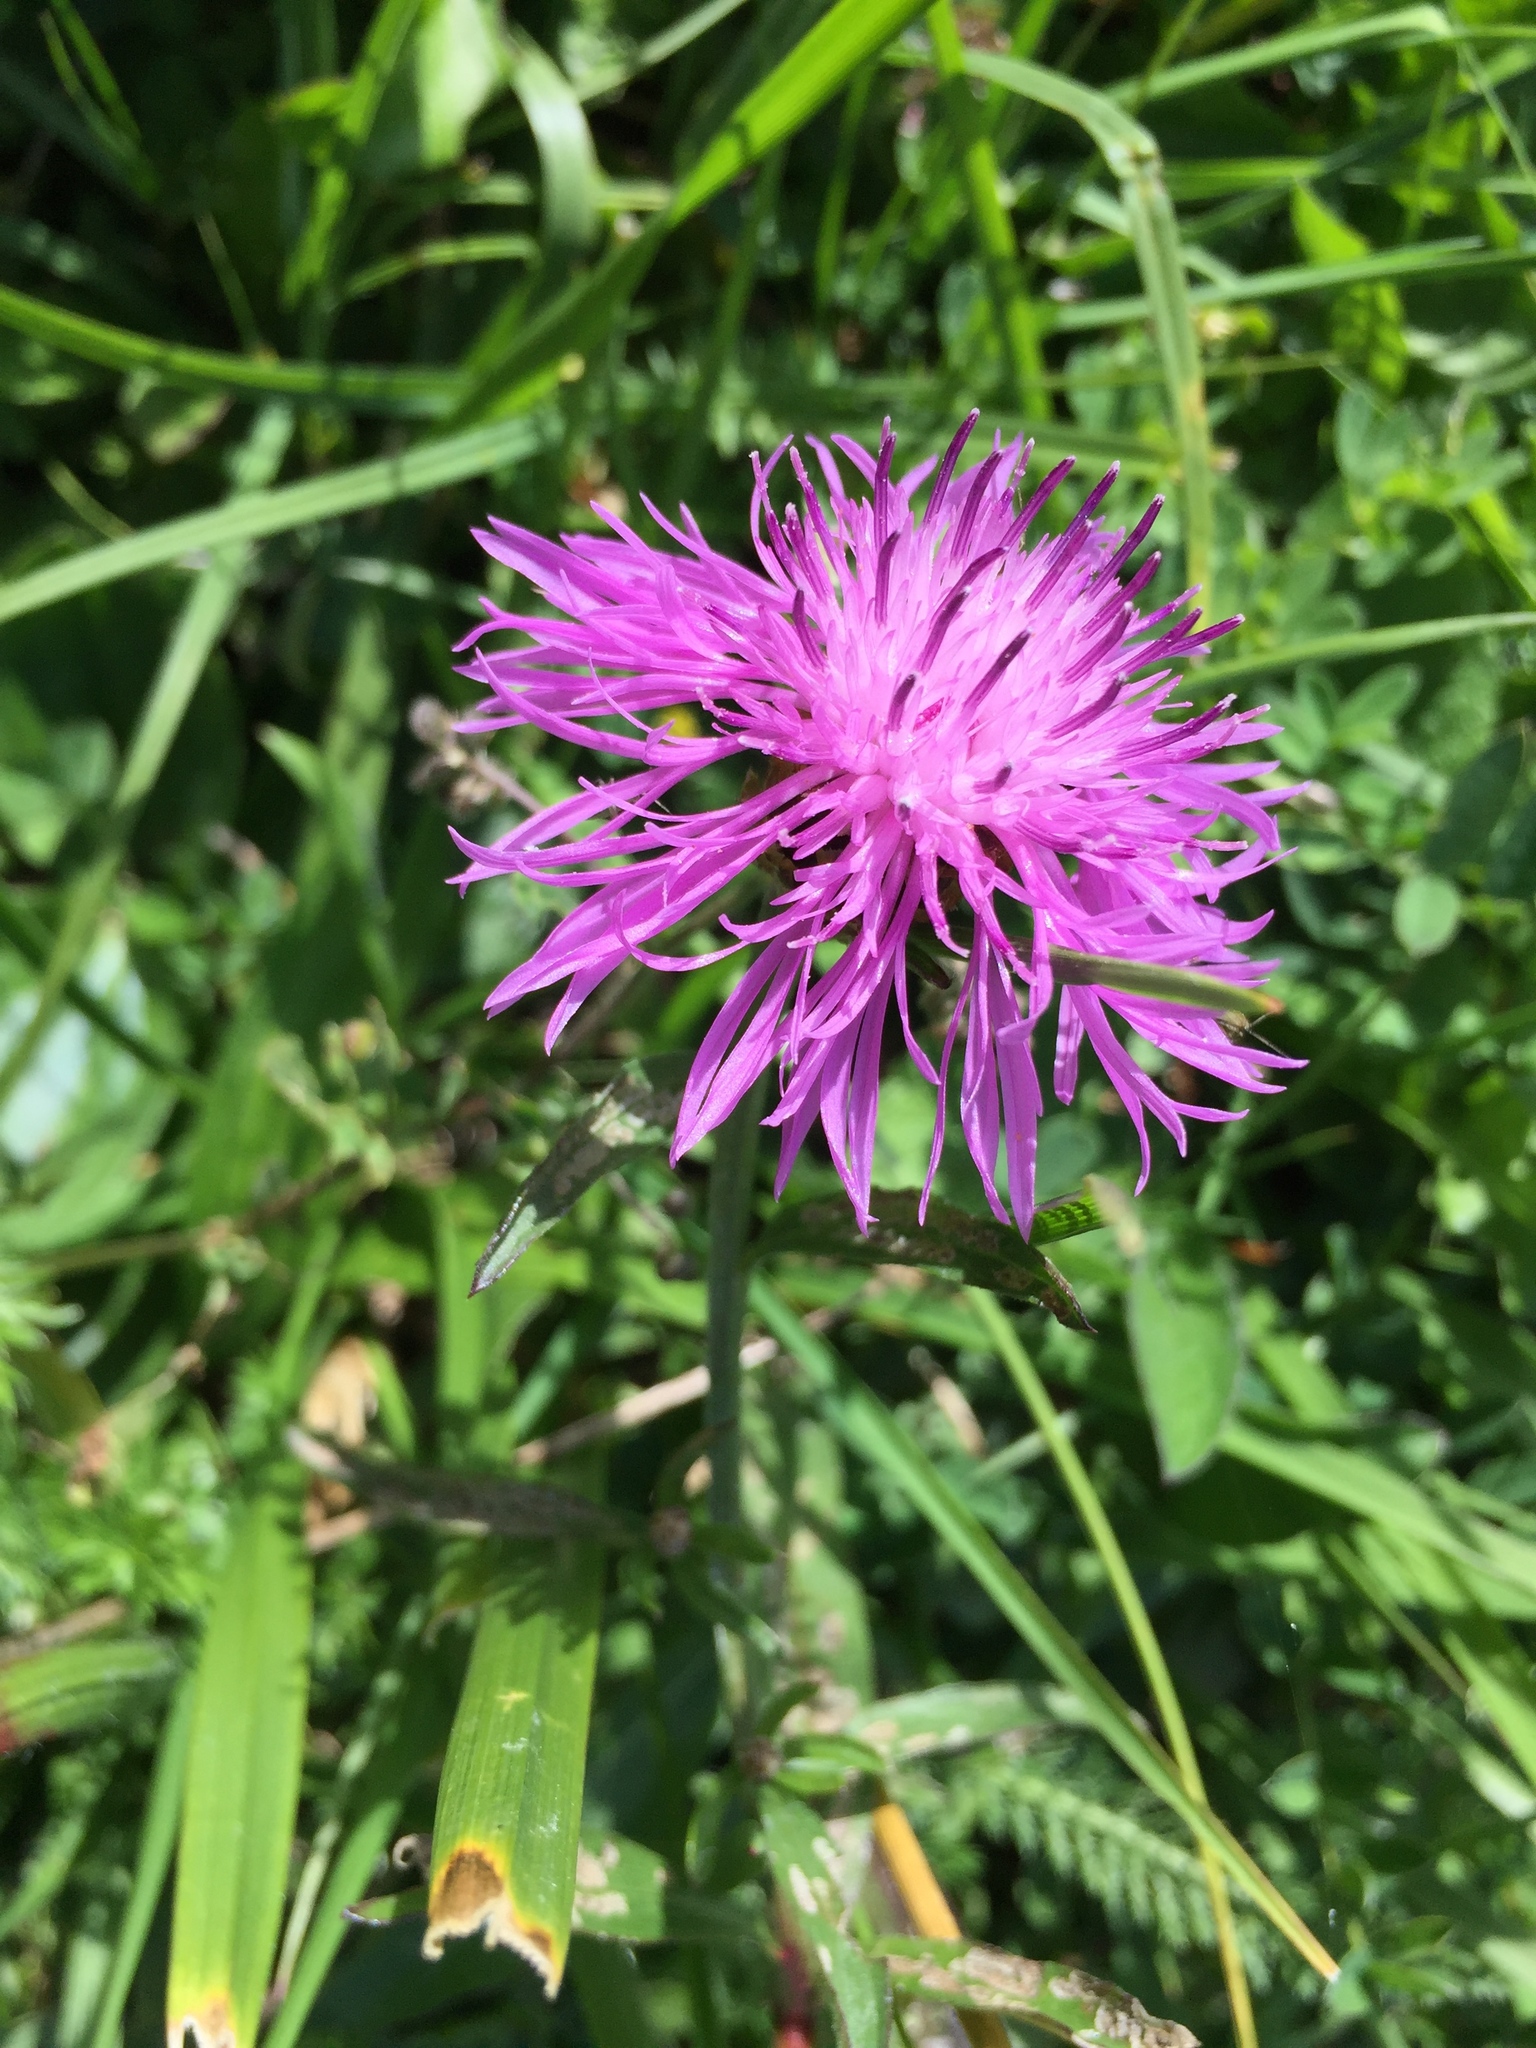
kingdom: Plantae
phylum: Tracheophyta
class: Magnoliopsida
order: Asterales
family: Asteraceae
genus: Centaurea
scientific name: Centaurea jacea
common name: Brown knapweed
